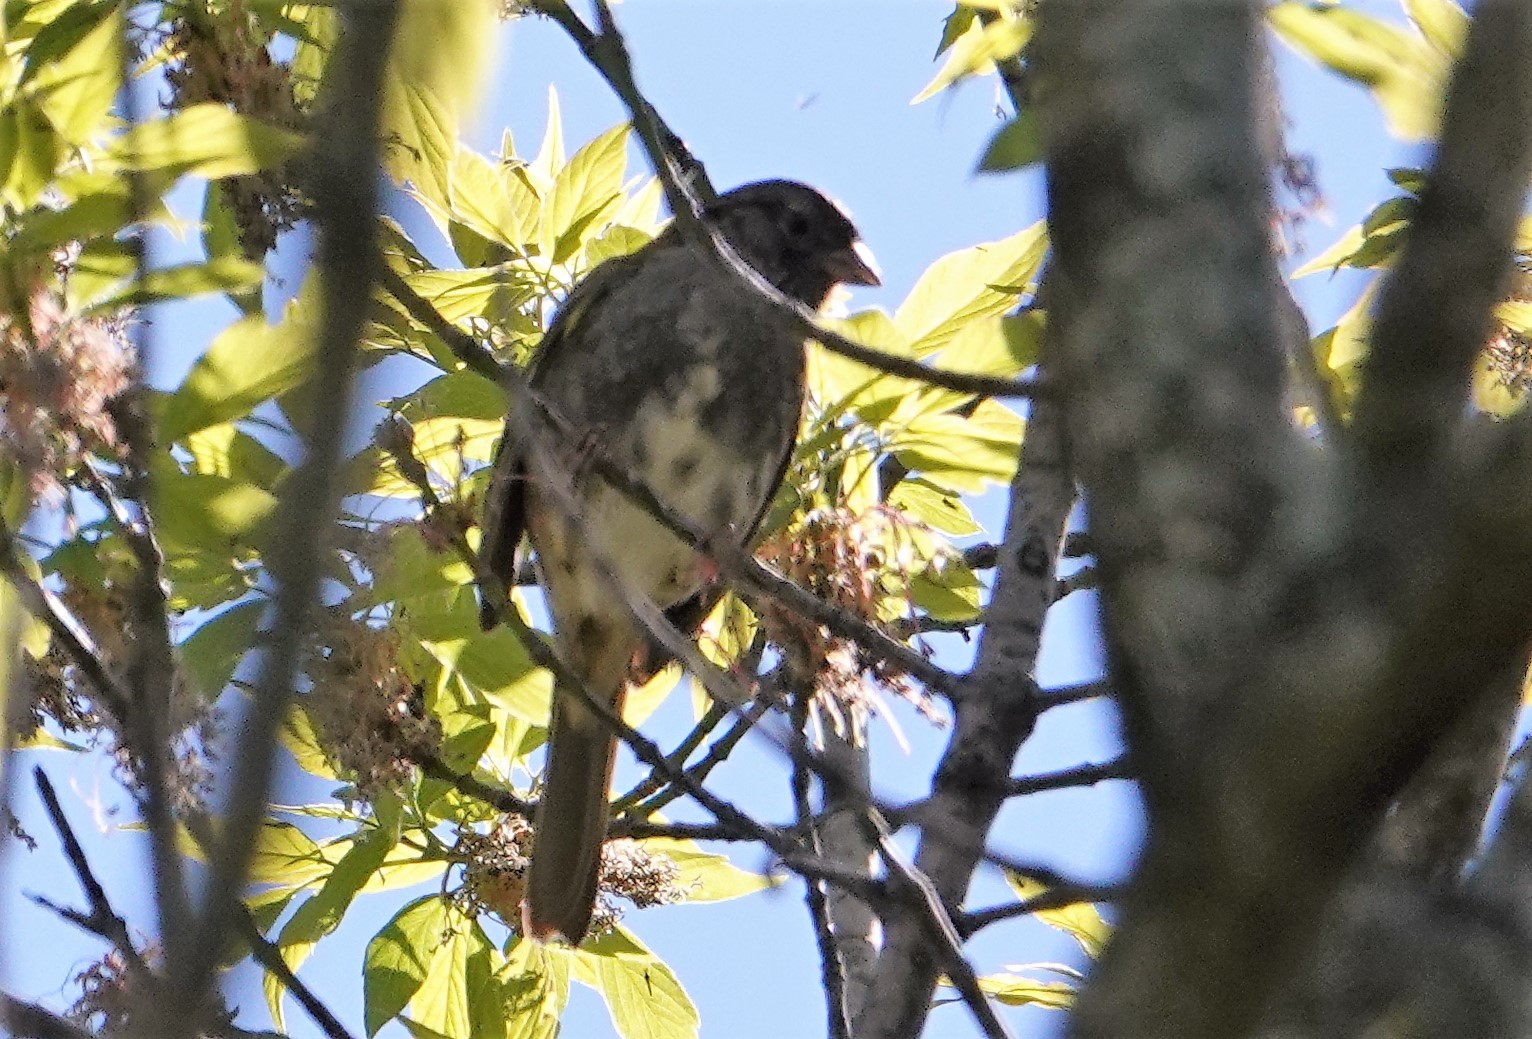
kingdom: Animalia
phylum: Chordata
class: Aves
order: Passeriformes
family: Passerellidae
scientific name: Passerellidae
